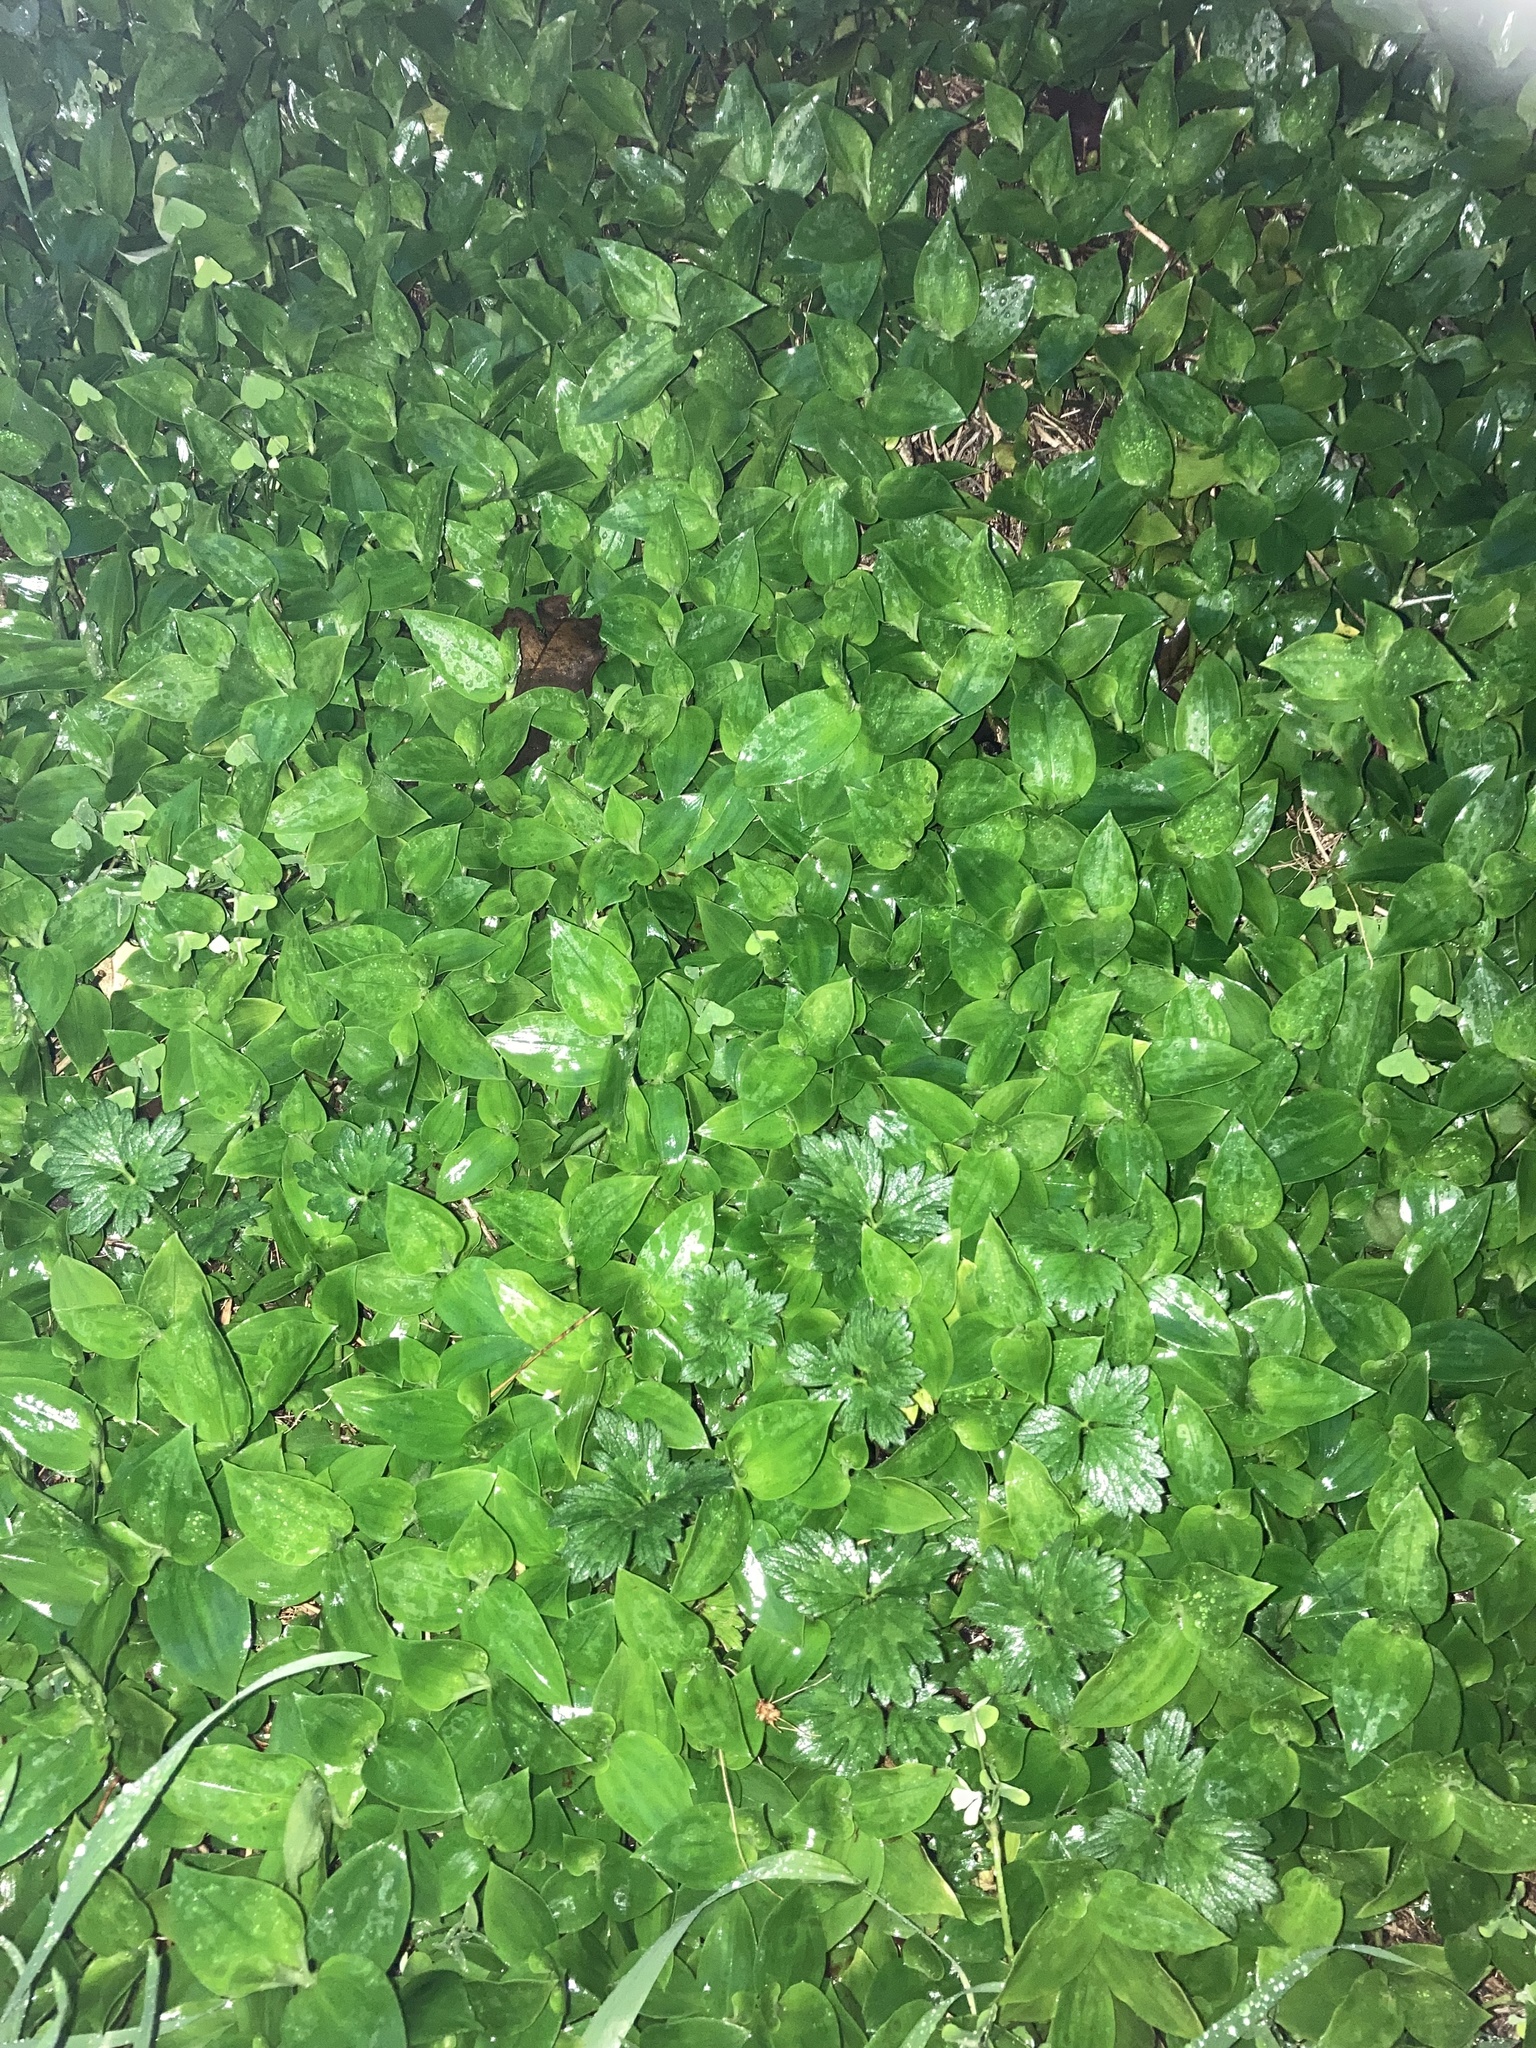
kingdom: Plantae
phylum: Tracheophyta
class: Liliopsida
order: Commelinales
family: Commelinaceae
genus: Tradescantia
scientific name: Tradescantia fluminensis
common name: Wandering-jew
